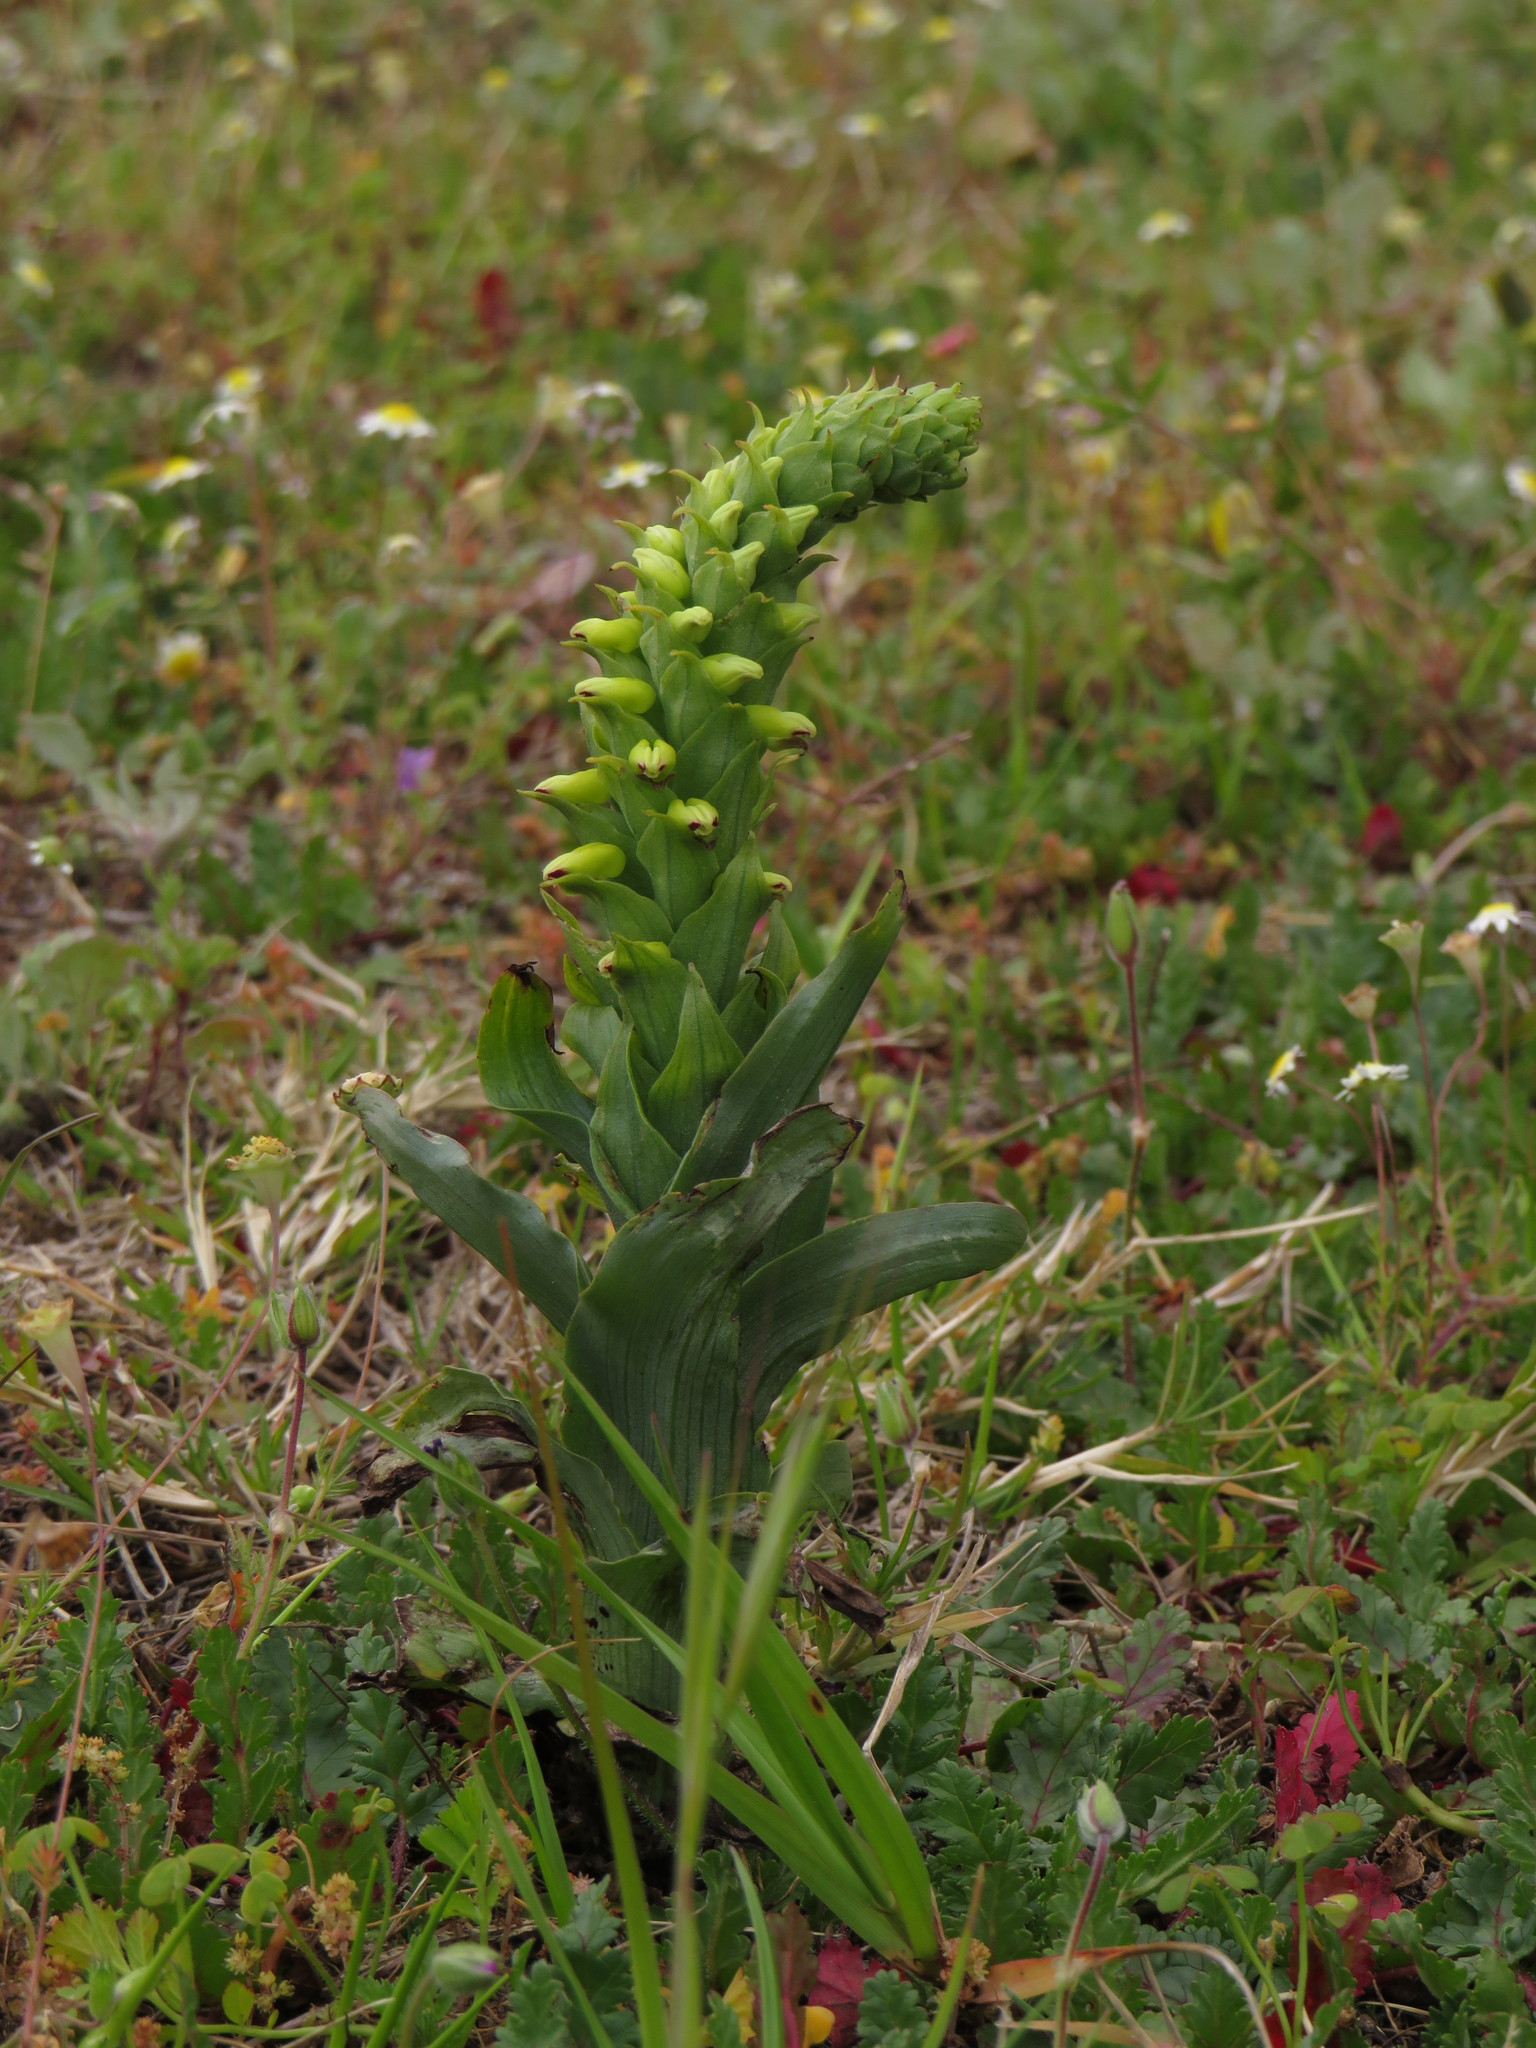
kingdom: Plantae
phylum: Tracheophyta
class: Liliopsida
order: Asparagales
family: Orchidaceae
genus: Corycium
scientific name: Corycium orobanchoides
